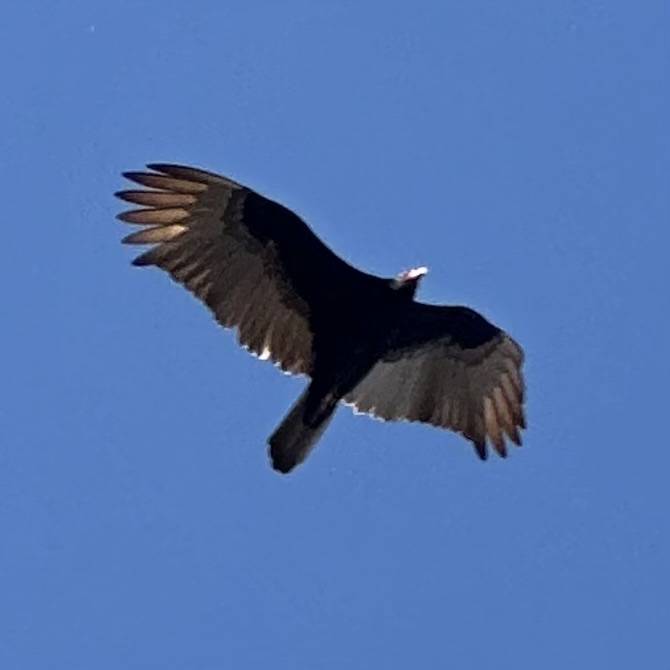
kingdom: Animalia
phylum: Chordata
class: Aves
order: Accipitriformes
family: Cathartidae
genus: Cathartes
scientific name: Cathartes aura
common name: Turkey vulture
